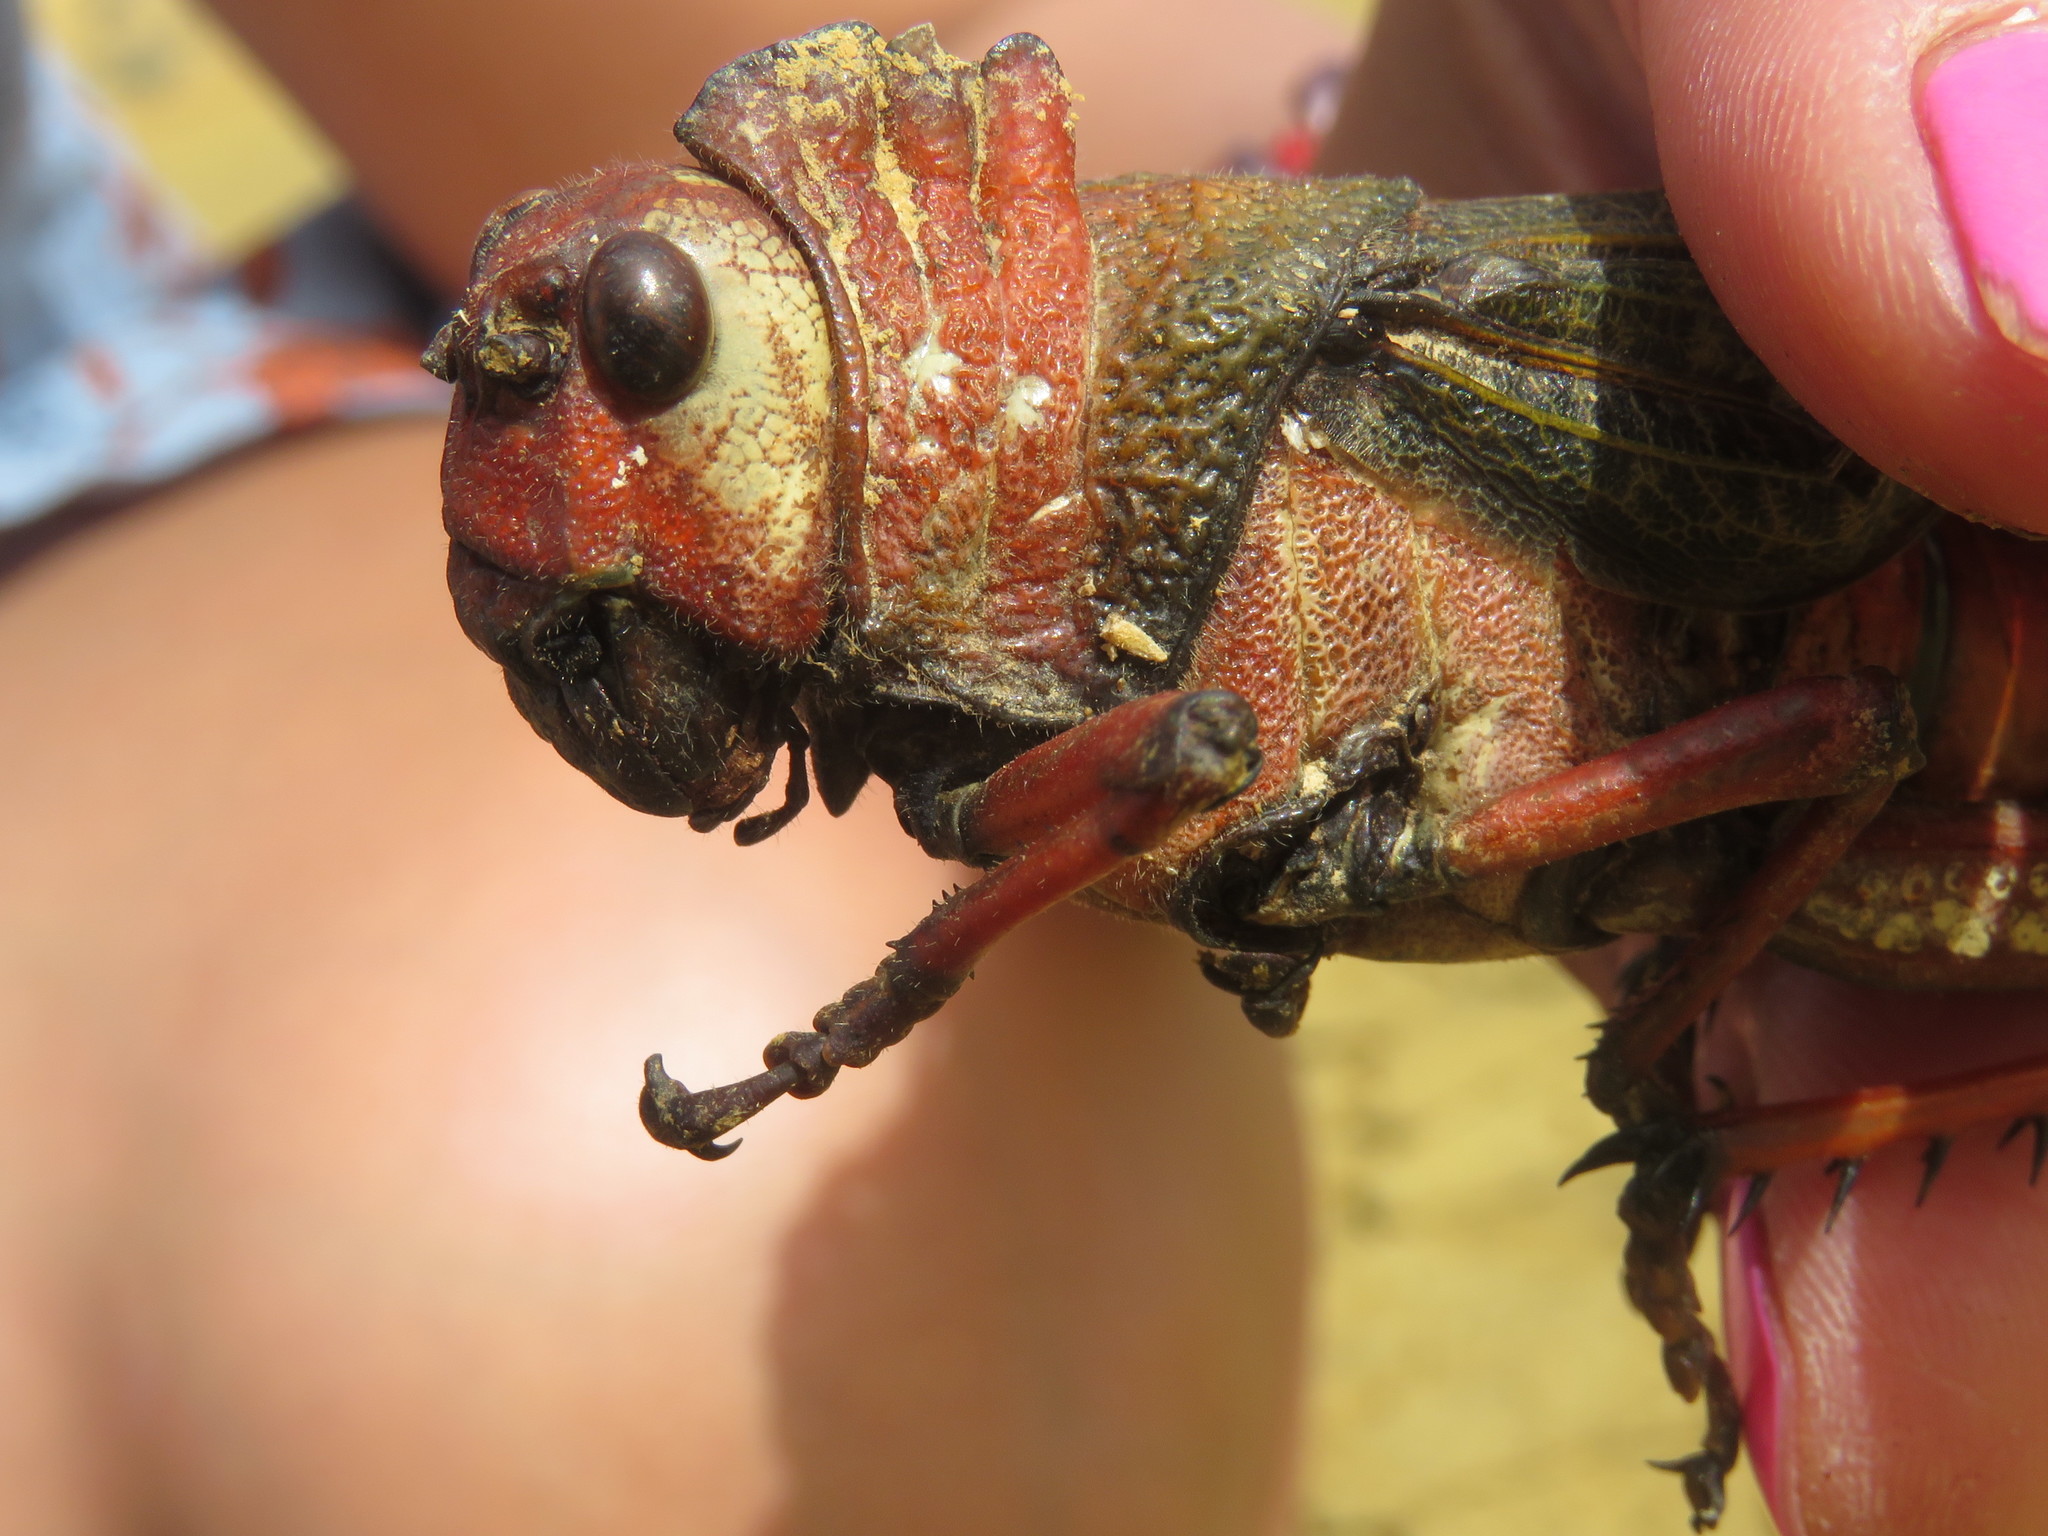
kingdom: Animalia
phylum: Arthropoda
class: Insecta
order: Orthoptera
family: Romaleidae
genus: Tropidacris
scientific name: Tropidacris collaris
